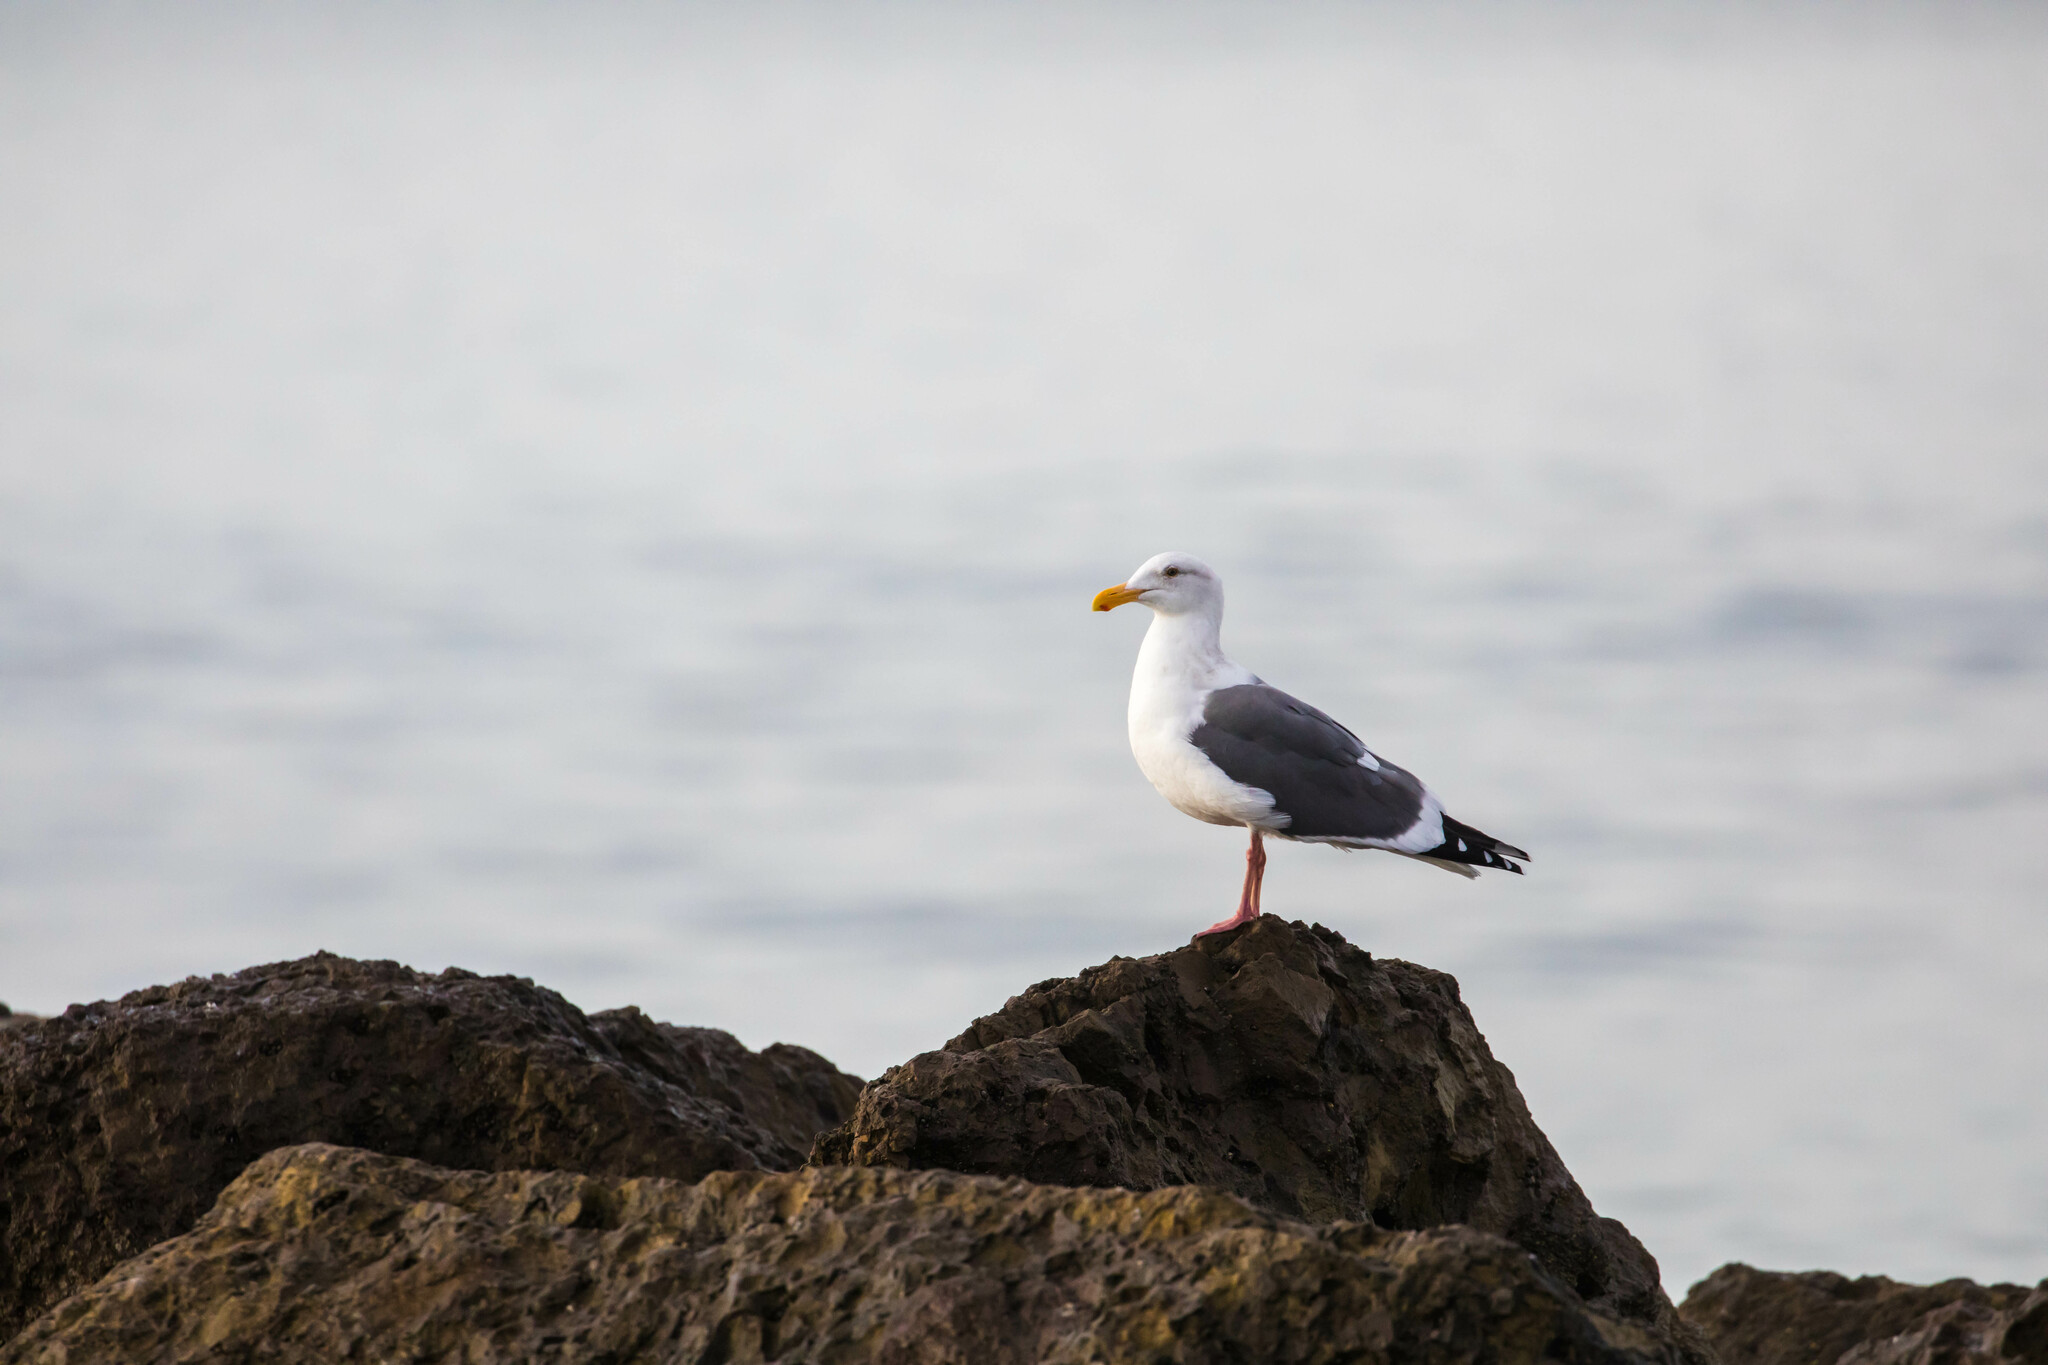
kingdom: Animalia
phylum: Chordata
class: Aves
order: Charadriiformes
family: Laridae
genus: Larus
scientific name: Larus occidentalis
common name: Western gull
